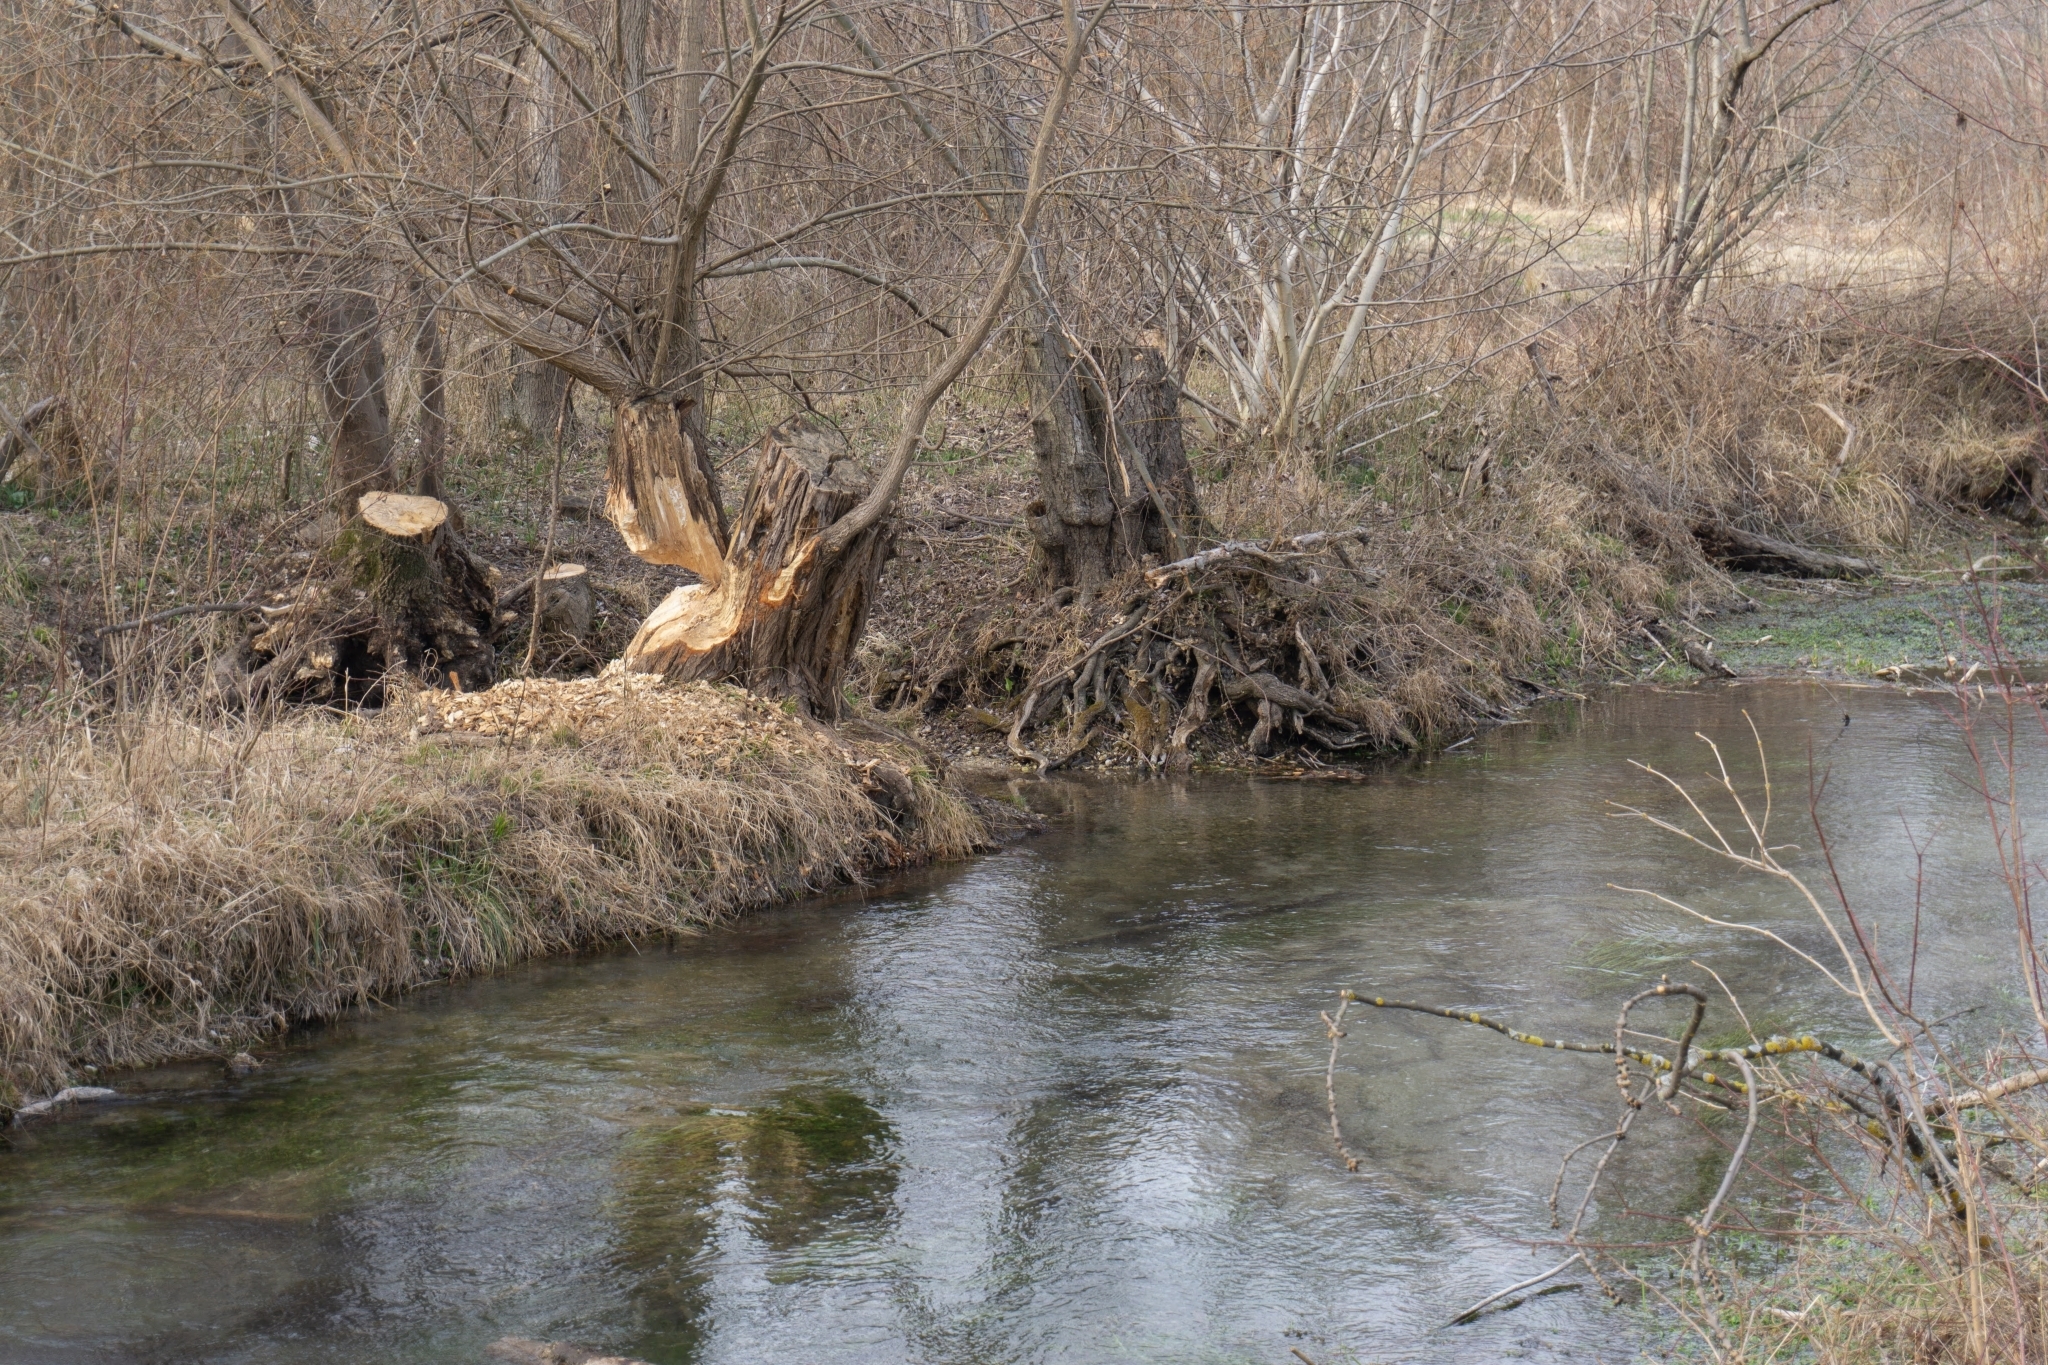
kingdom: Animalia
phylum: Chordata
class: Mammalia
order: Rodentia
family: Castoridae
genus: Castor
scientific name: Castor fiber
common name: Eurasian beaver
